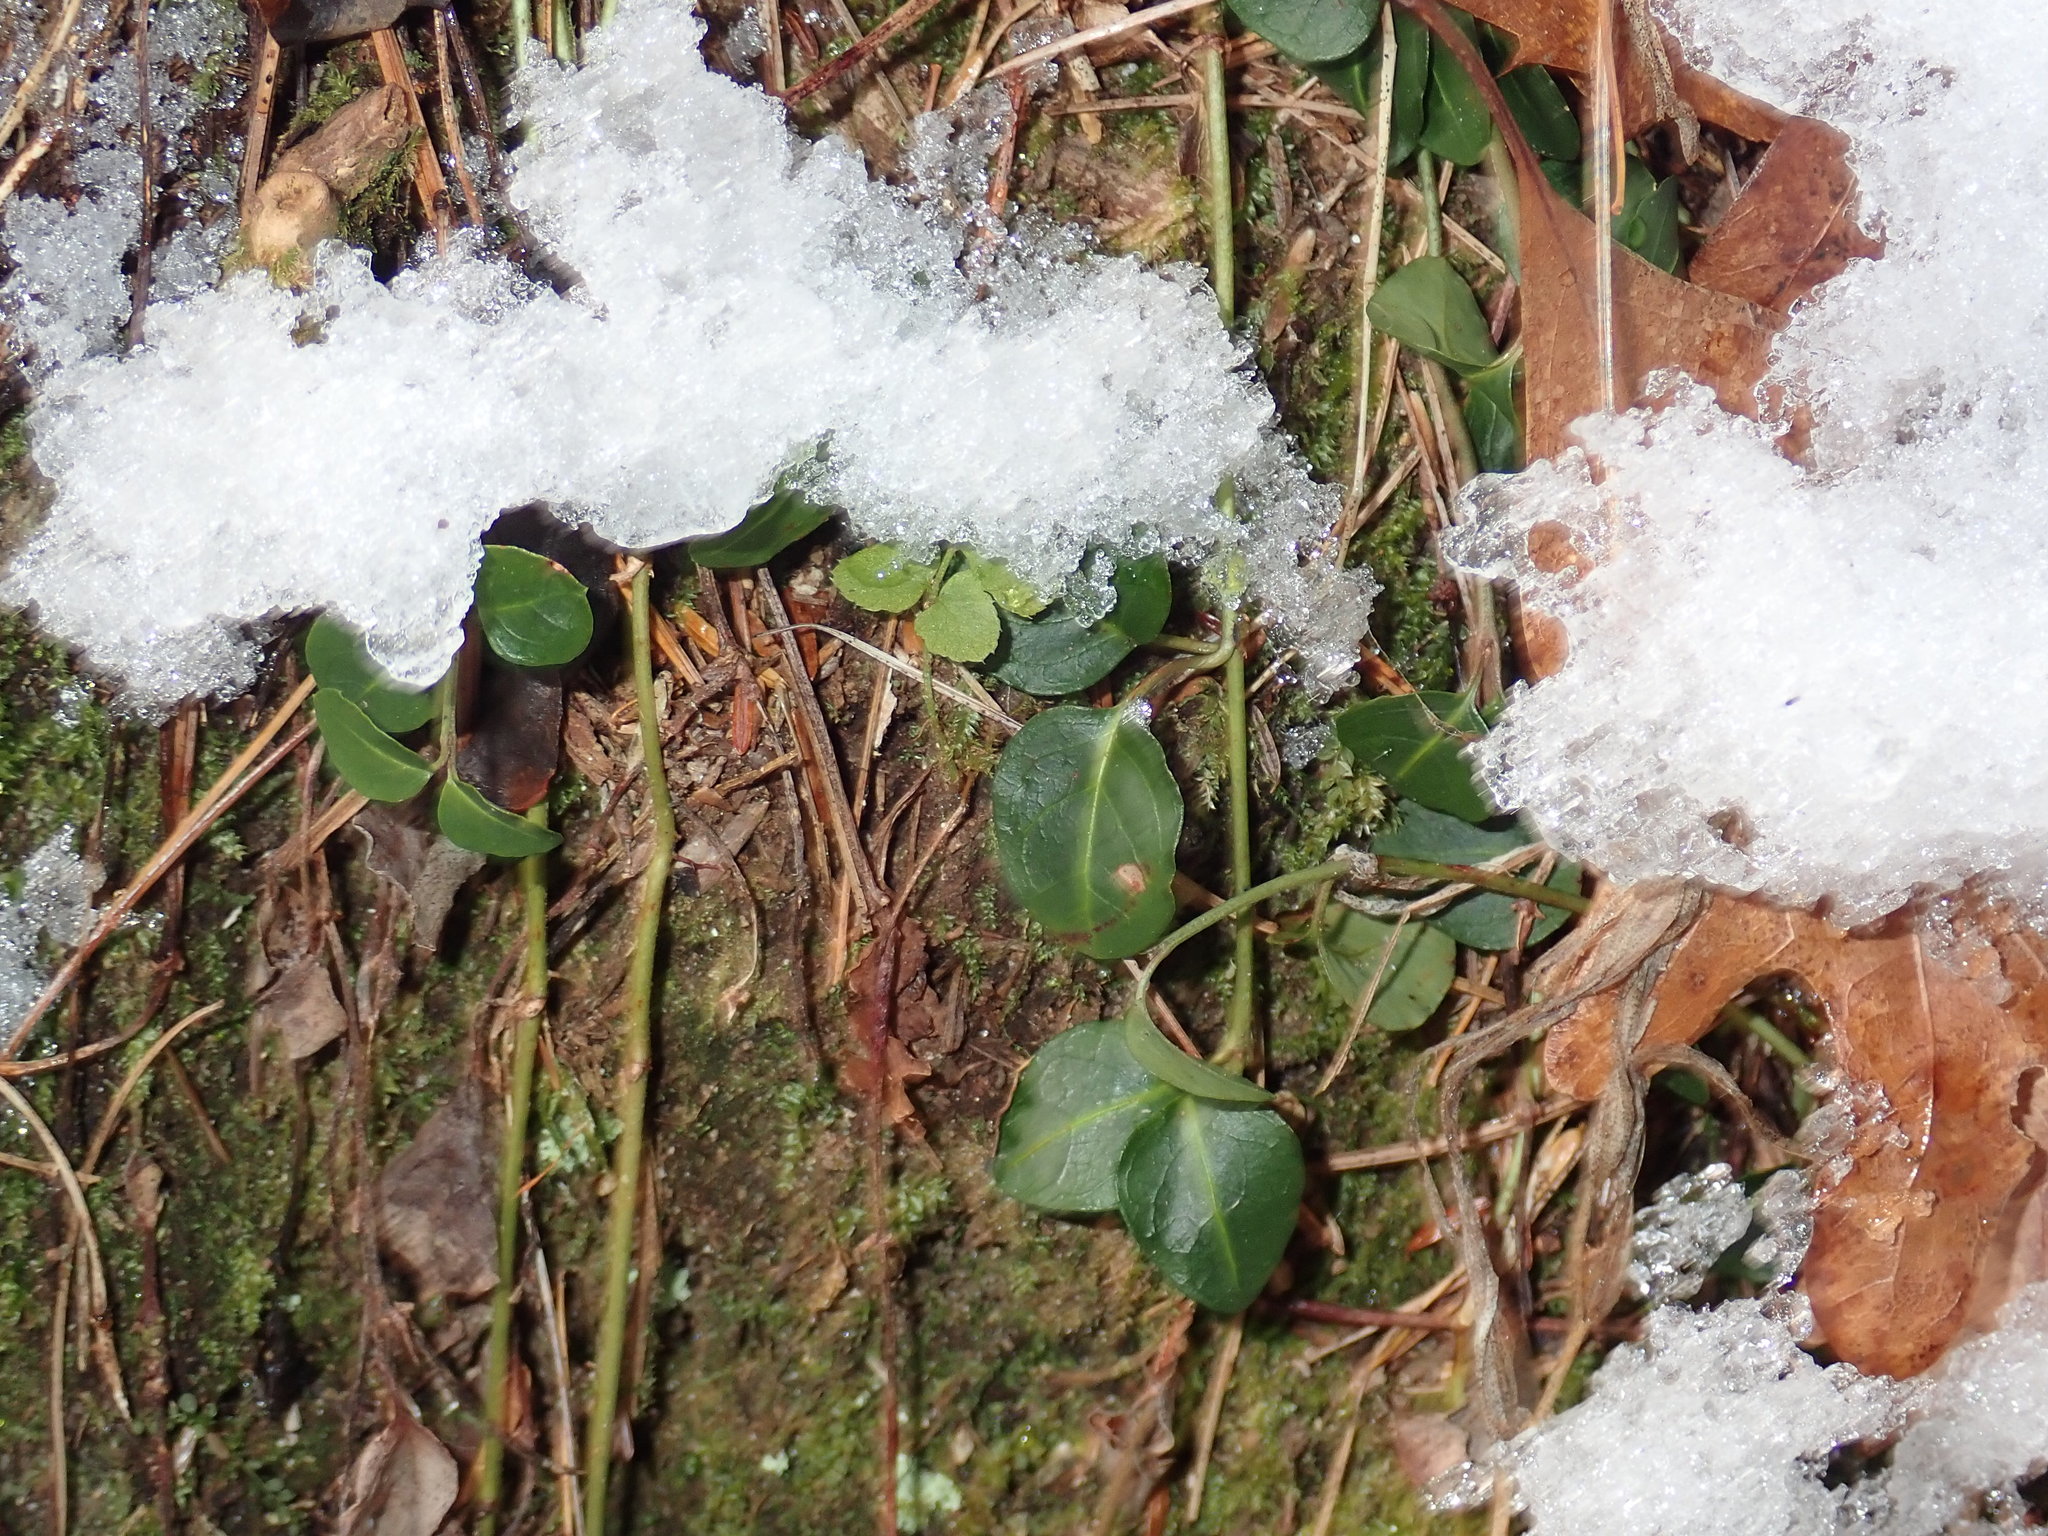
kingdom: Plantae
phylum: Tracheophyta
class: Magnoliopsida
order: Gentianales
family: Rubiaceae
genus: Mitchella
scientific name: Mitchella repens
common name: Partridge-berry
